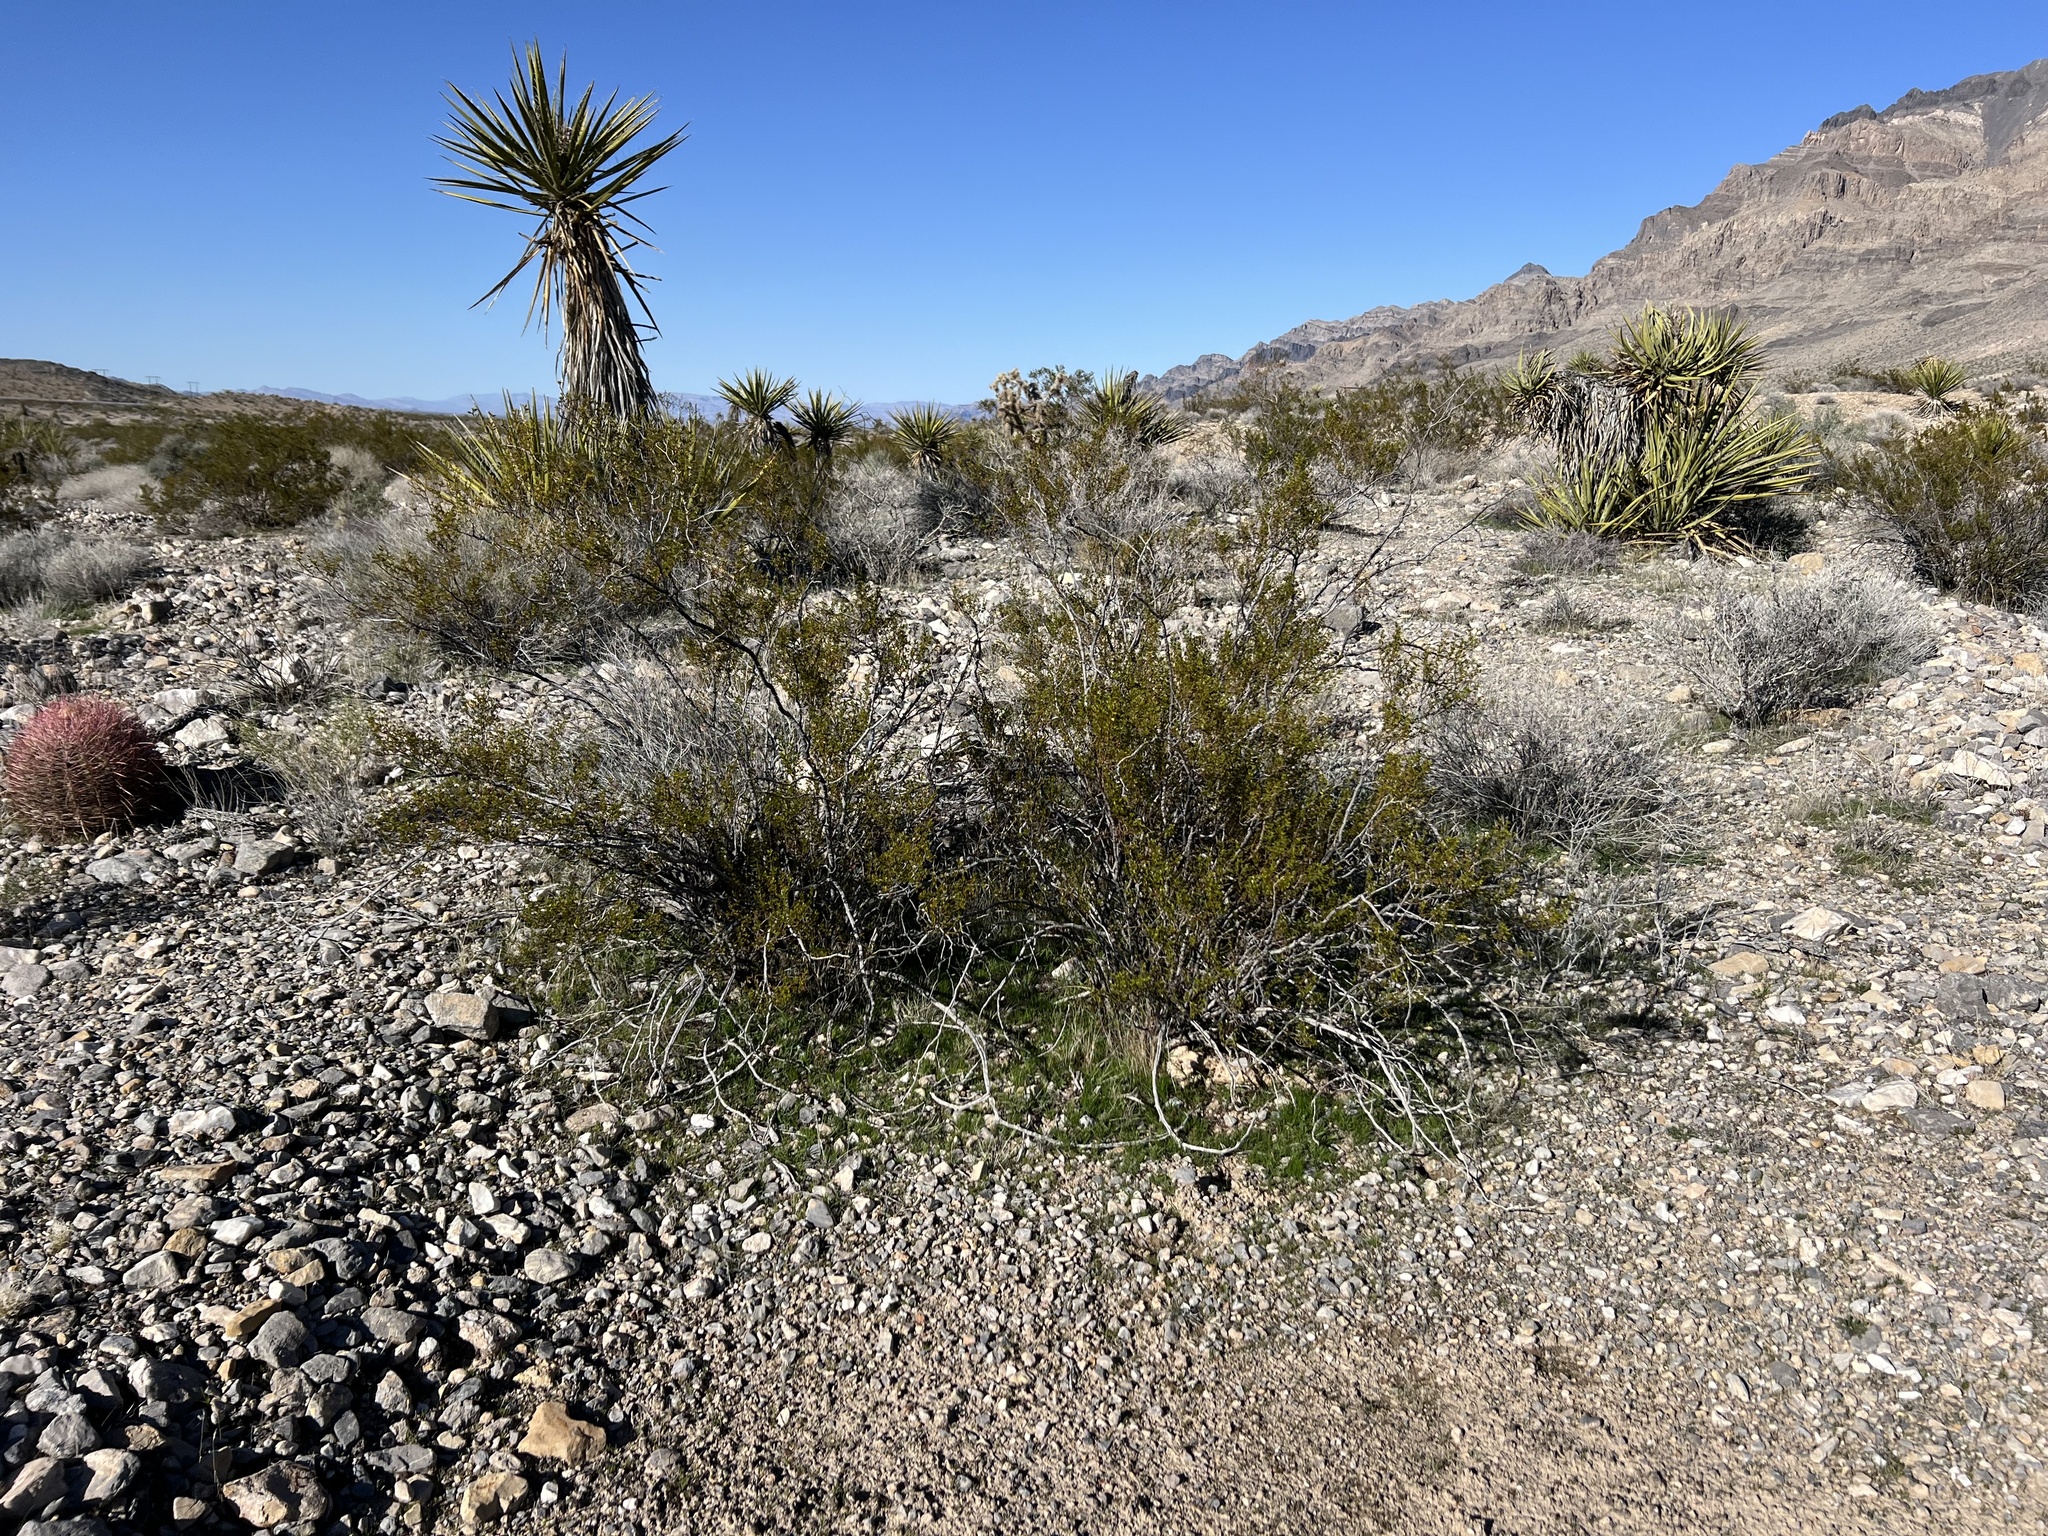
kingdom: Plantae
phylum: Tracheophyta
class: Magnoliopsida
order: Zygophyllales
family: Zygophyllaceae
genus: Larrea
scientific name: Larrea tridentata
